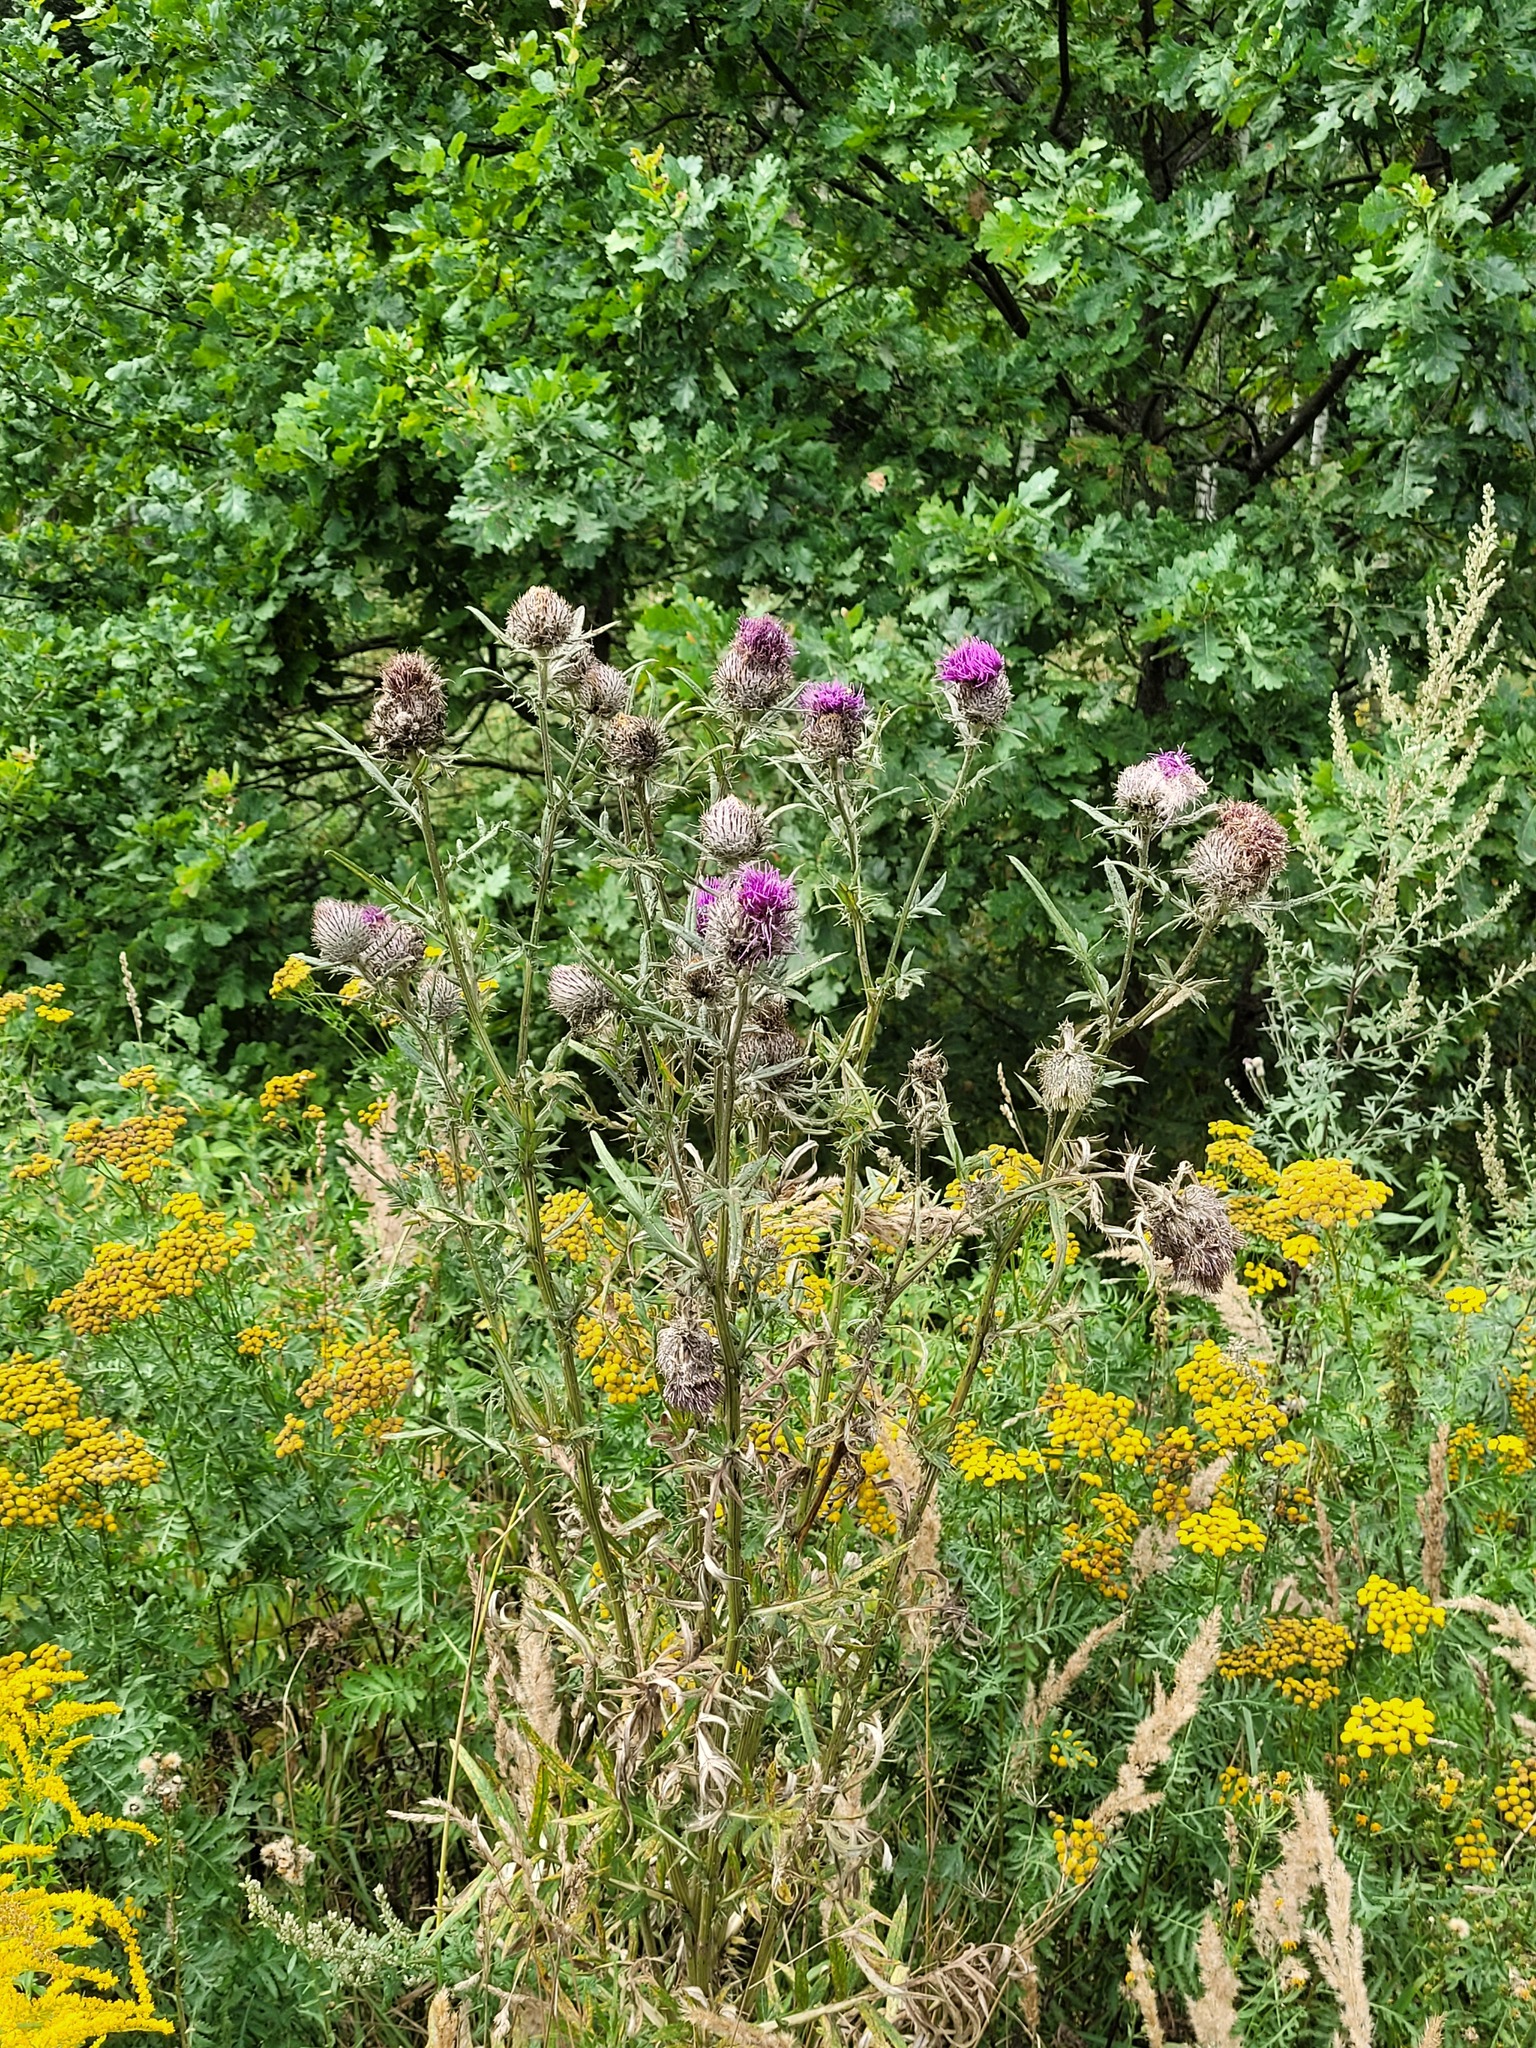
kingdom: Plantae
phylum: Tracheophyta
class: Magnoliopsida
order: Asterales
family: Asteraceae
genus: Lophiolepis
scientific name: Lophiolepis decussata
